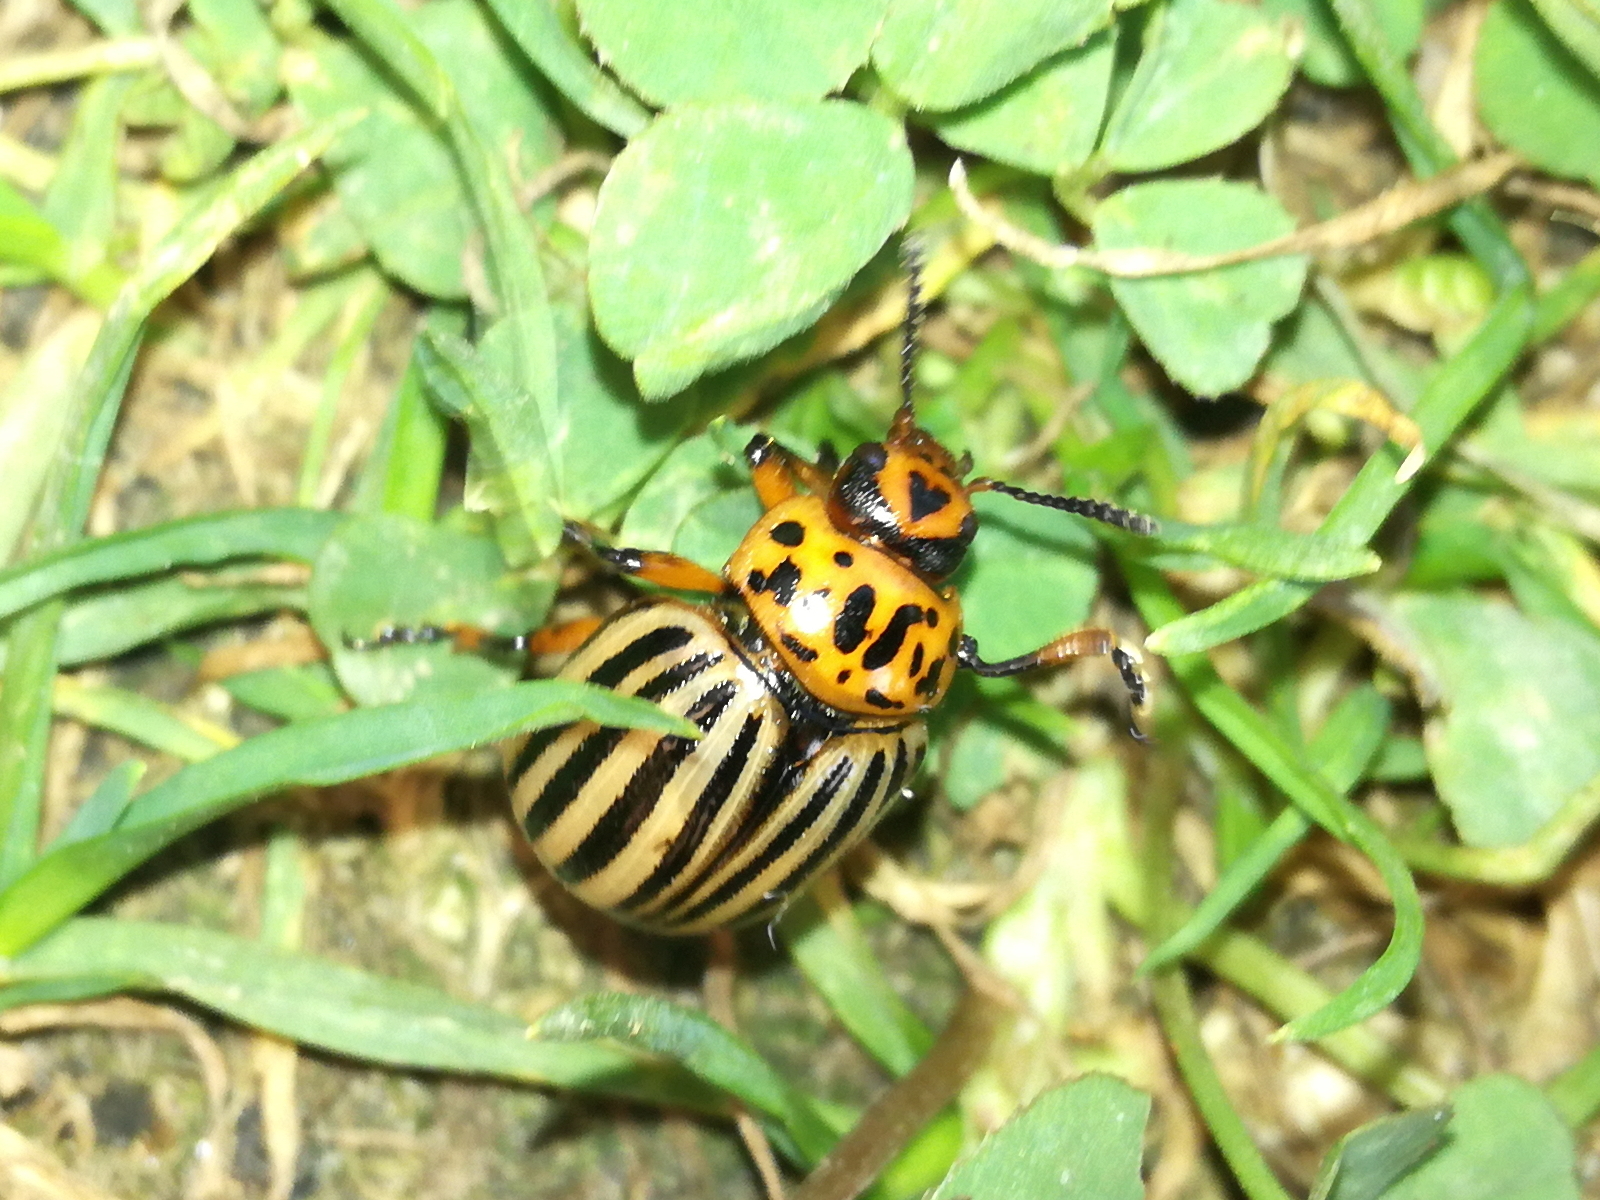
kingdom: Animalia
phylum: Arthropoda
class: Insecta
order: Coleoptera
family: Chrysomelidae
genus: Leptinotarsa
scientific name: Leptinotarsa decemlineata
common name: Colorado potato beetle
